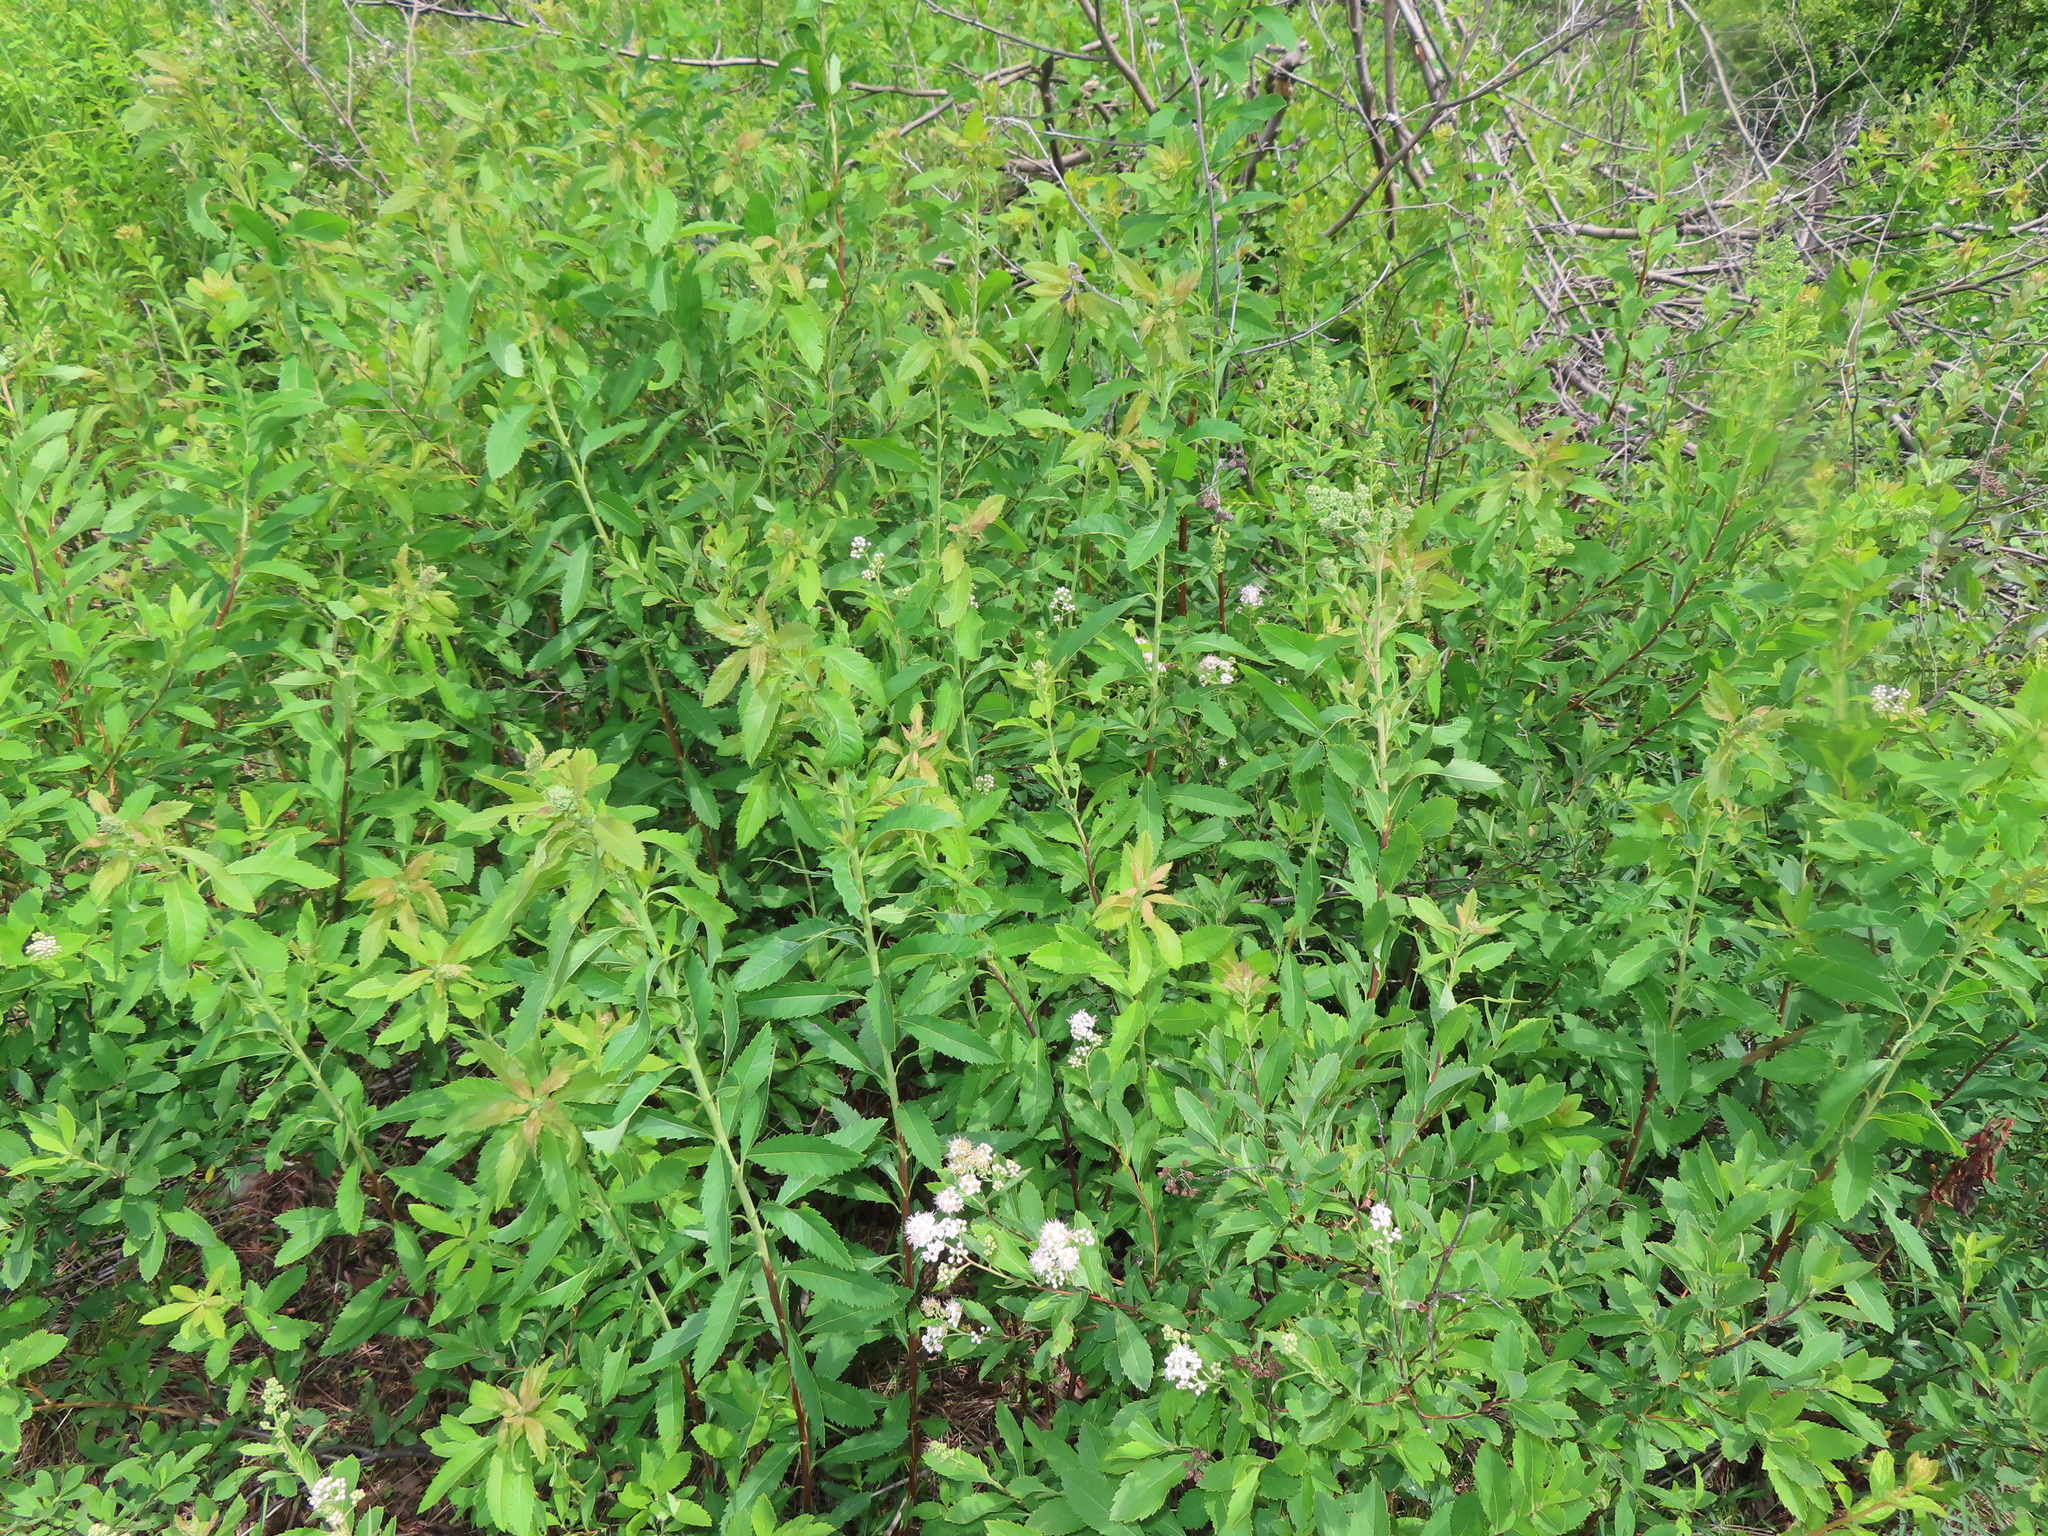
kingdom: Plantae
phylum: Tracheophyta
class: Magnoliopsida
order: Rosales
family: Rosaceae
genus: Spiraea
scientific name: Spiraea alba
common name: Pale bridewort
